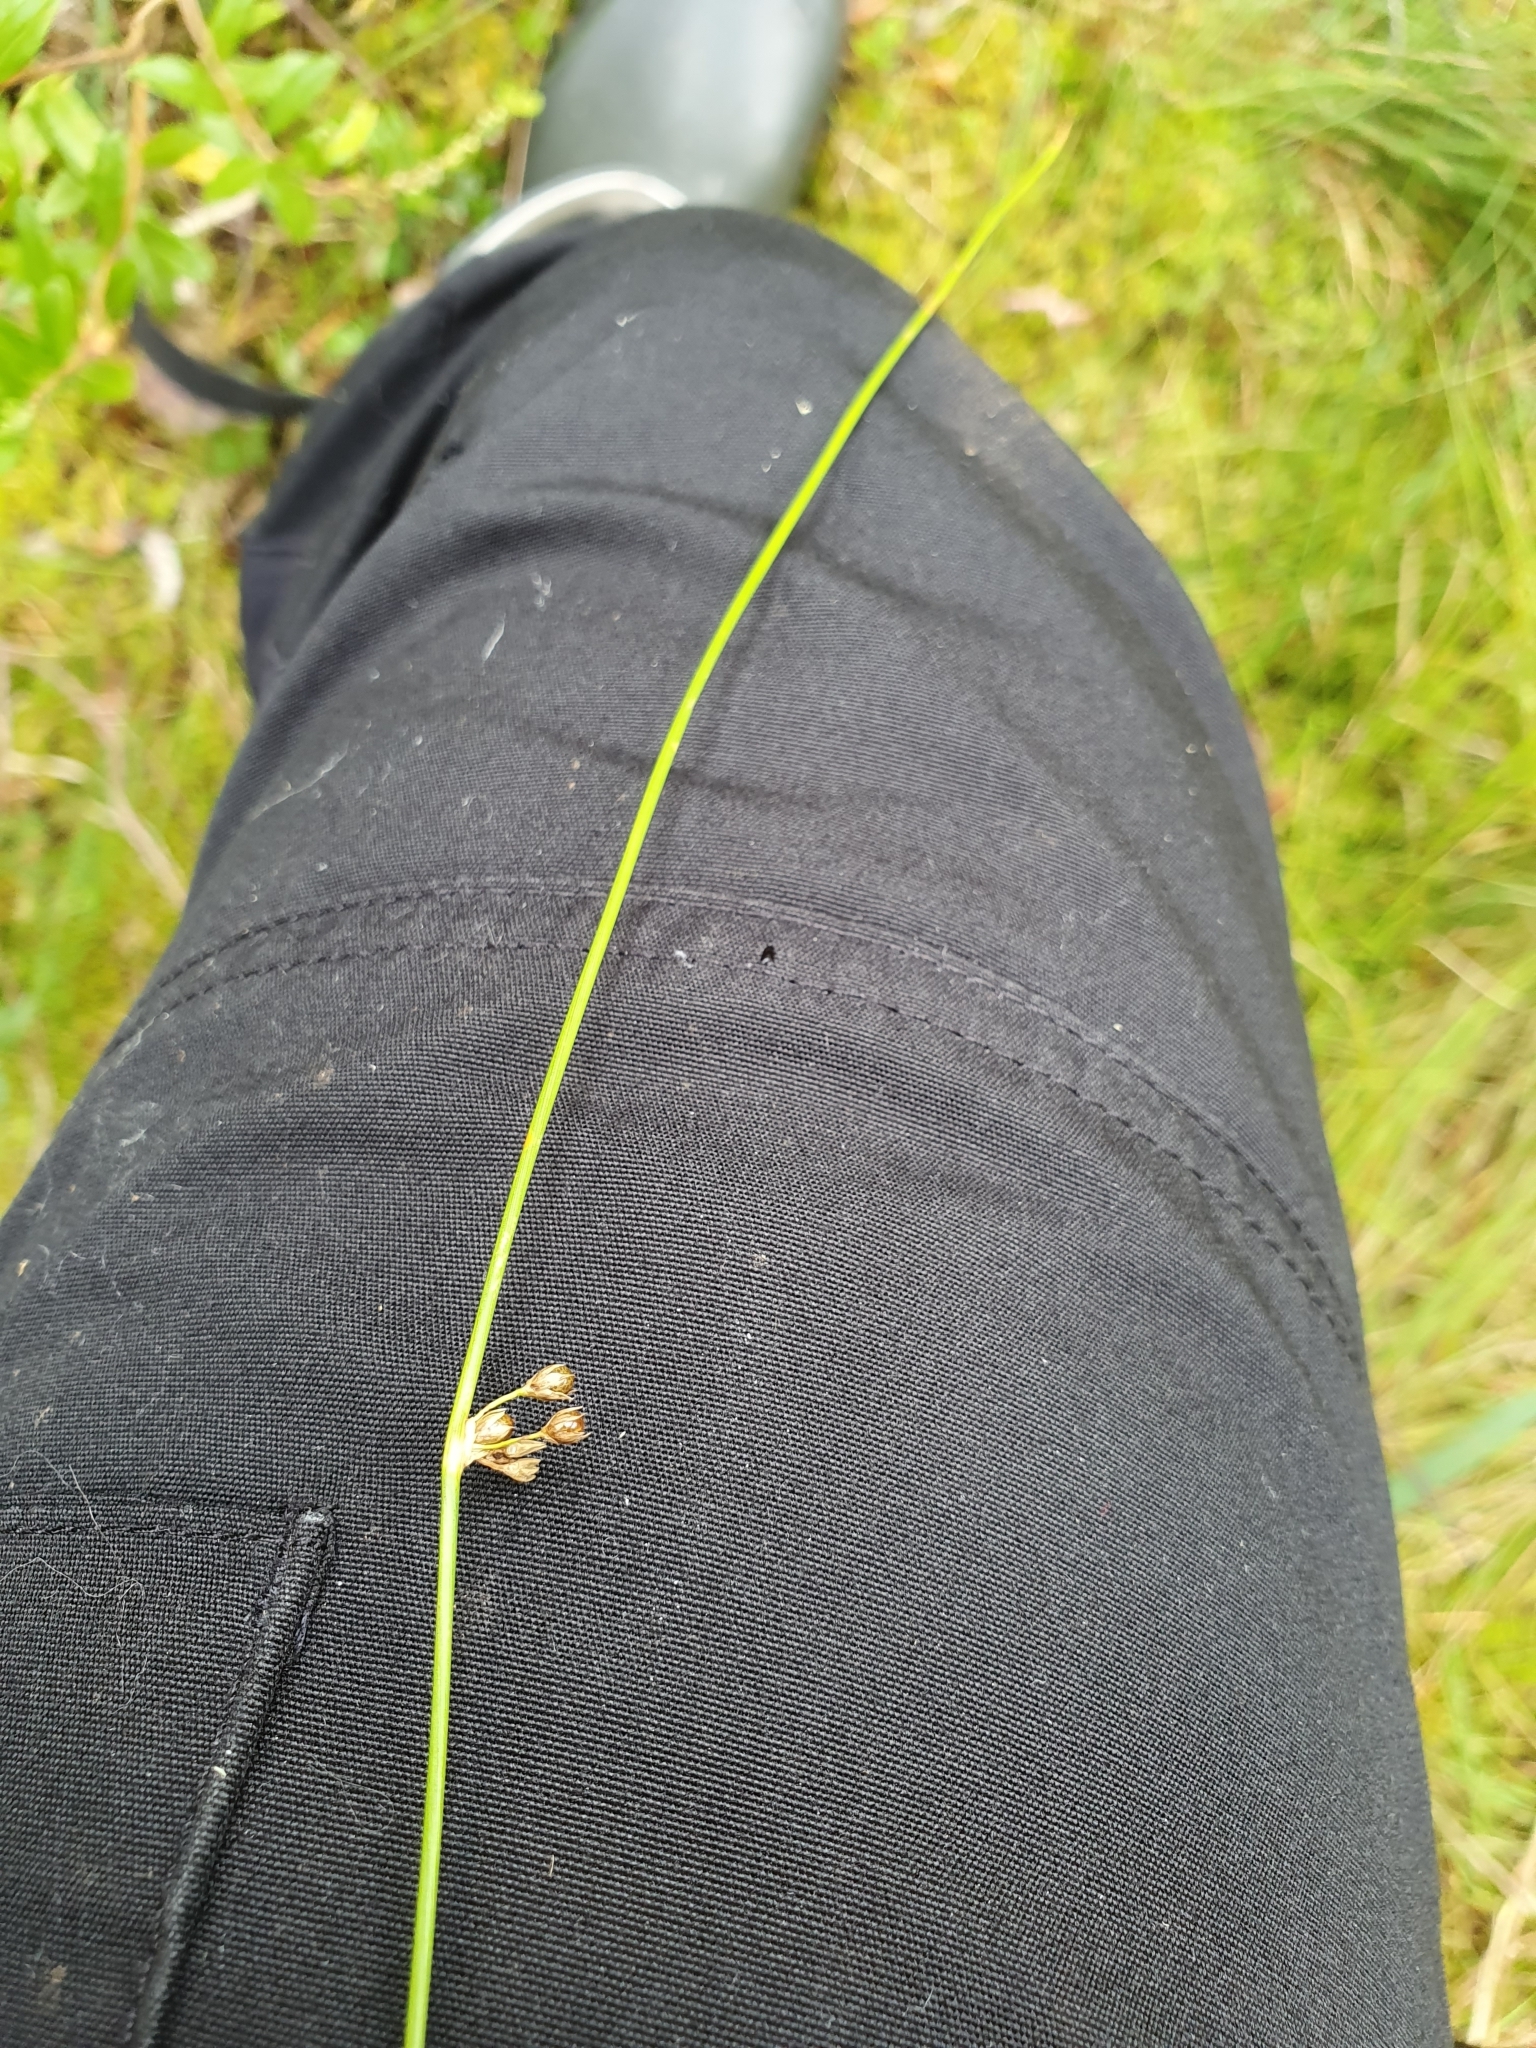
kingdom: Plantae
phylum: Tracheophyta
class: Liliopsida
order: Poales
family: Juncaceae
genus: Juncus
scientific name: Juncus filiformis
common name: Thread rush
